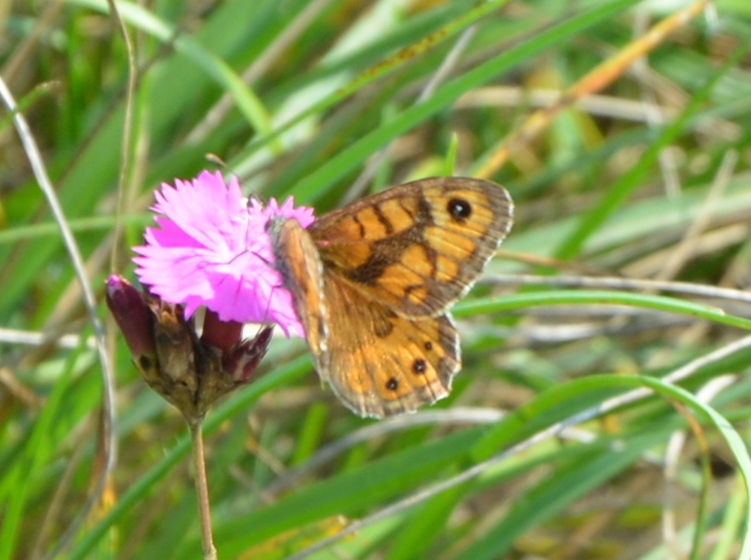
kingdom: Animalia
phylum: Arthropoda
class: Insecta
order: Lepidoptera
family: Nymphalidae
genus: Pararge
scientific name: Pararge Lasiommata megera
